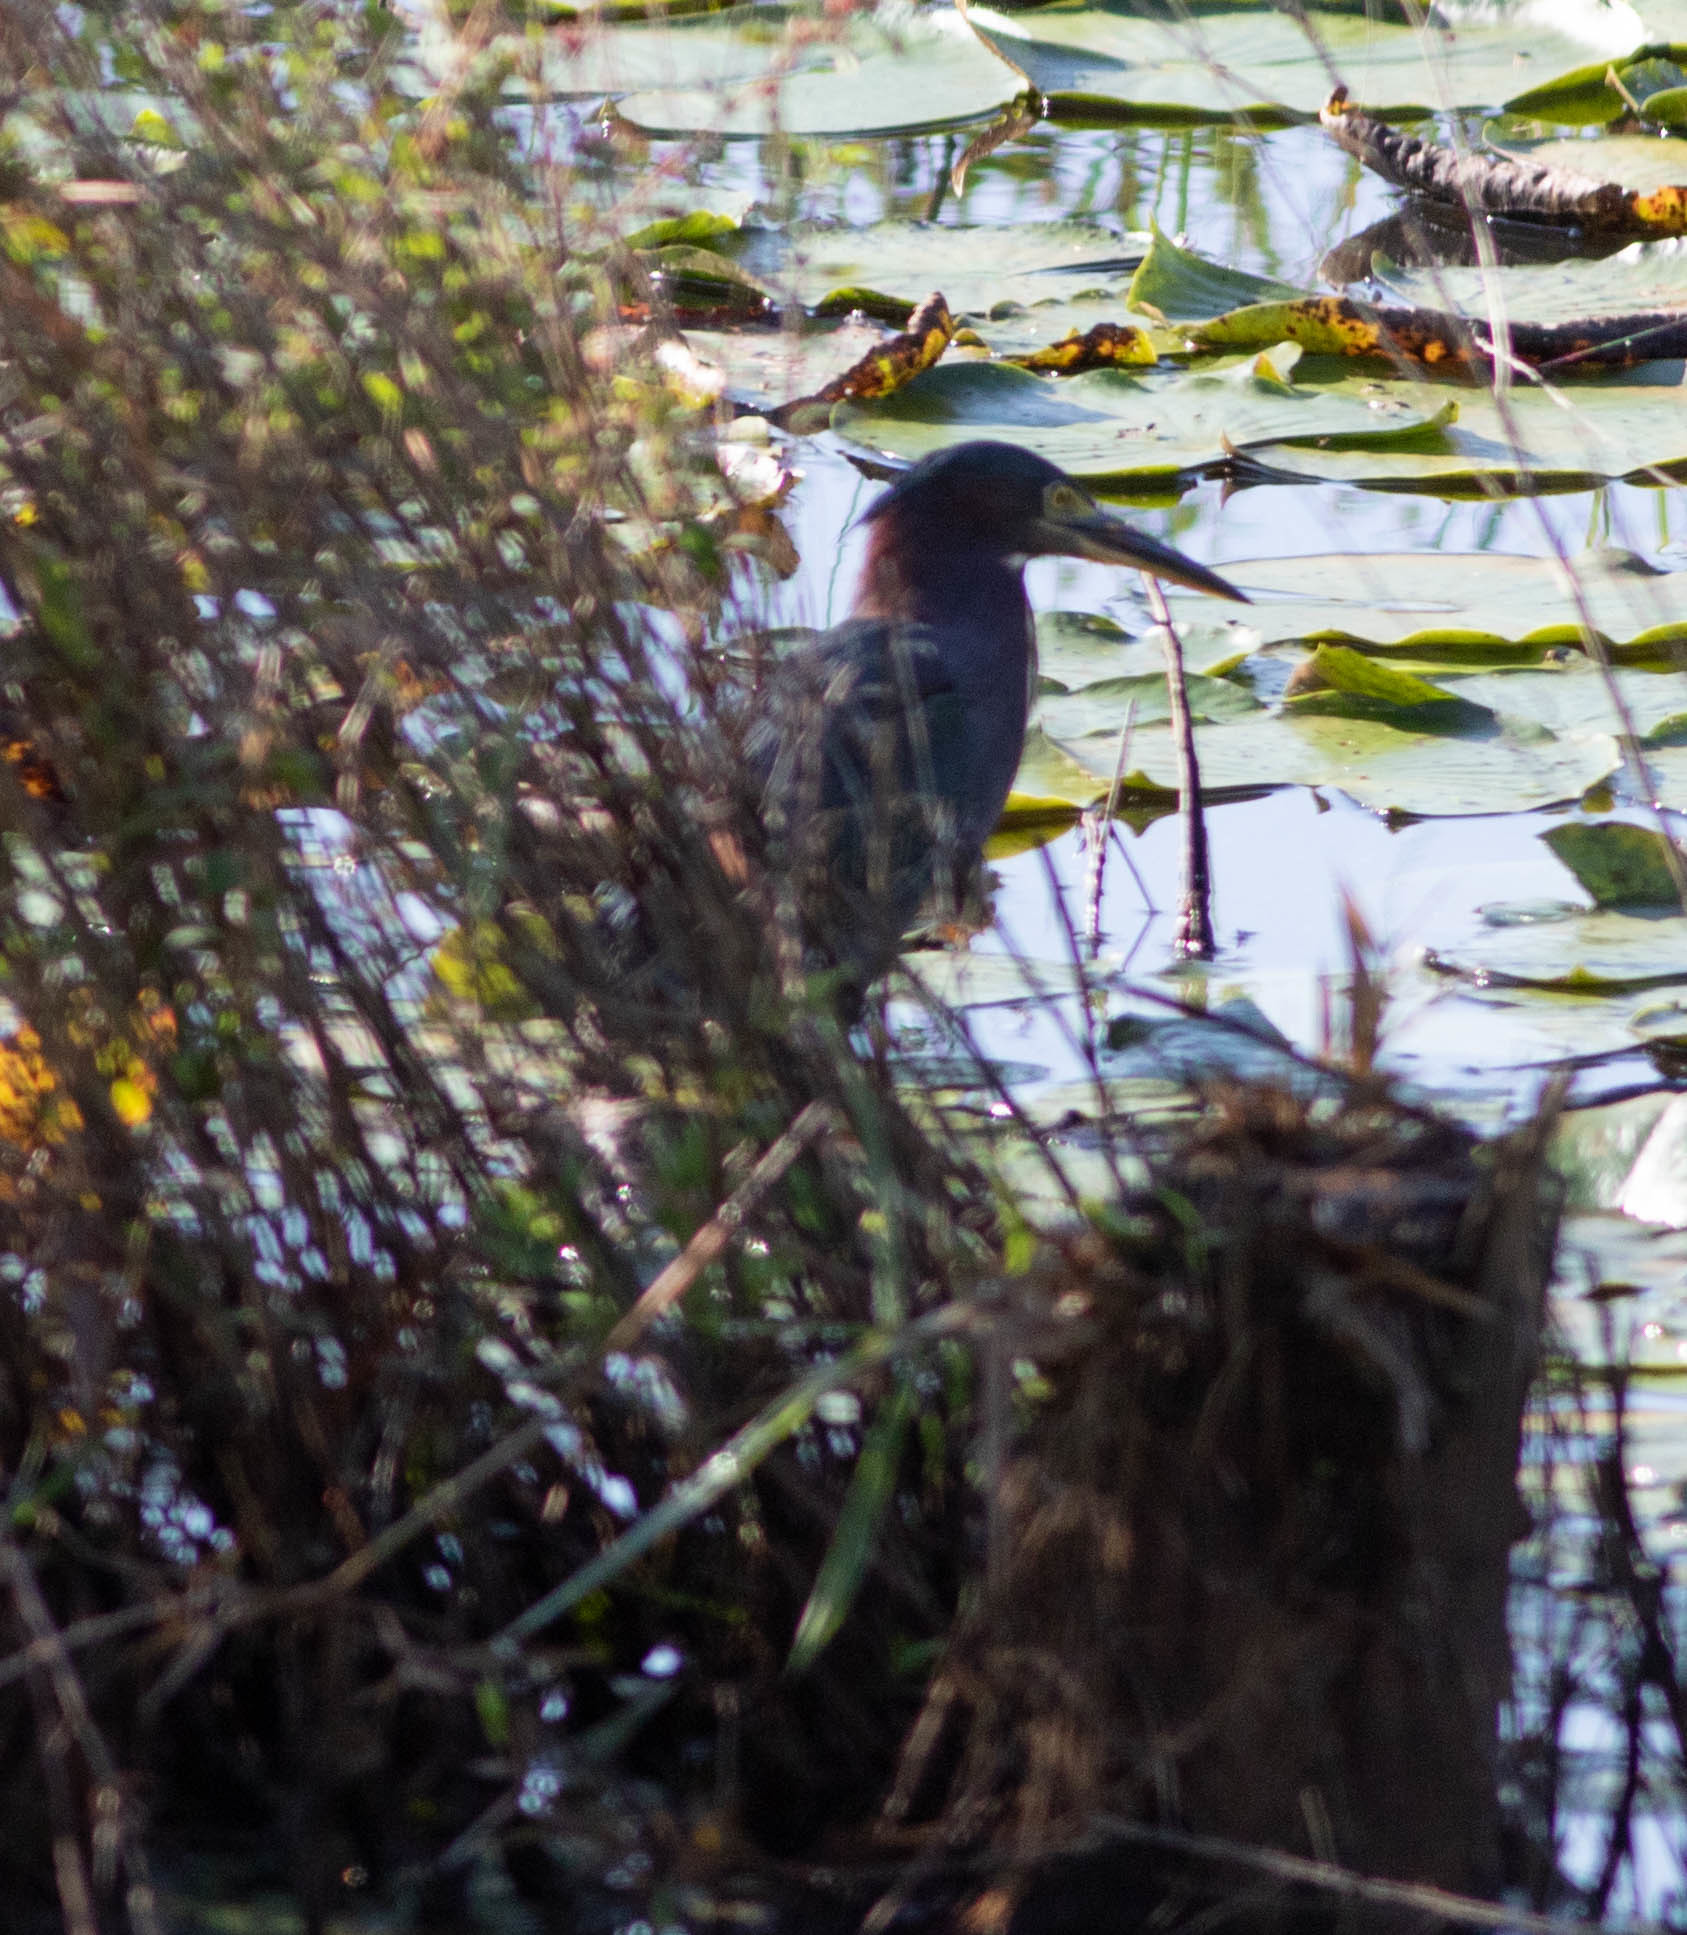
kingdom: Animalia
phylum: Chordata
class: Aves
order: Pelecaniformes
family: Ardeidae
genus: Butorides
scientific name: Butorides virescens
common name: Green heron
